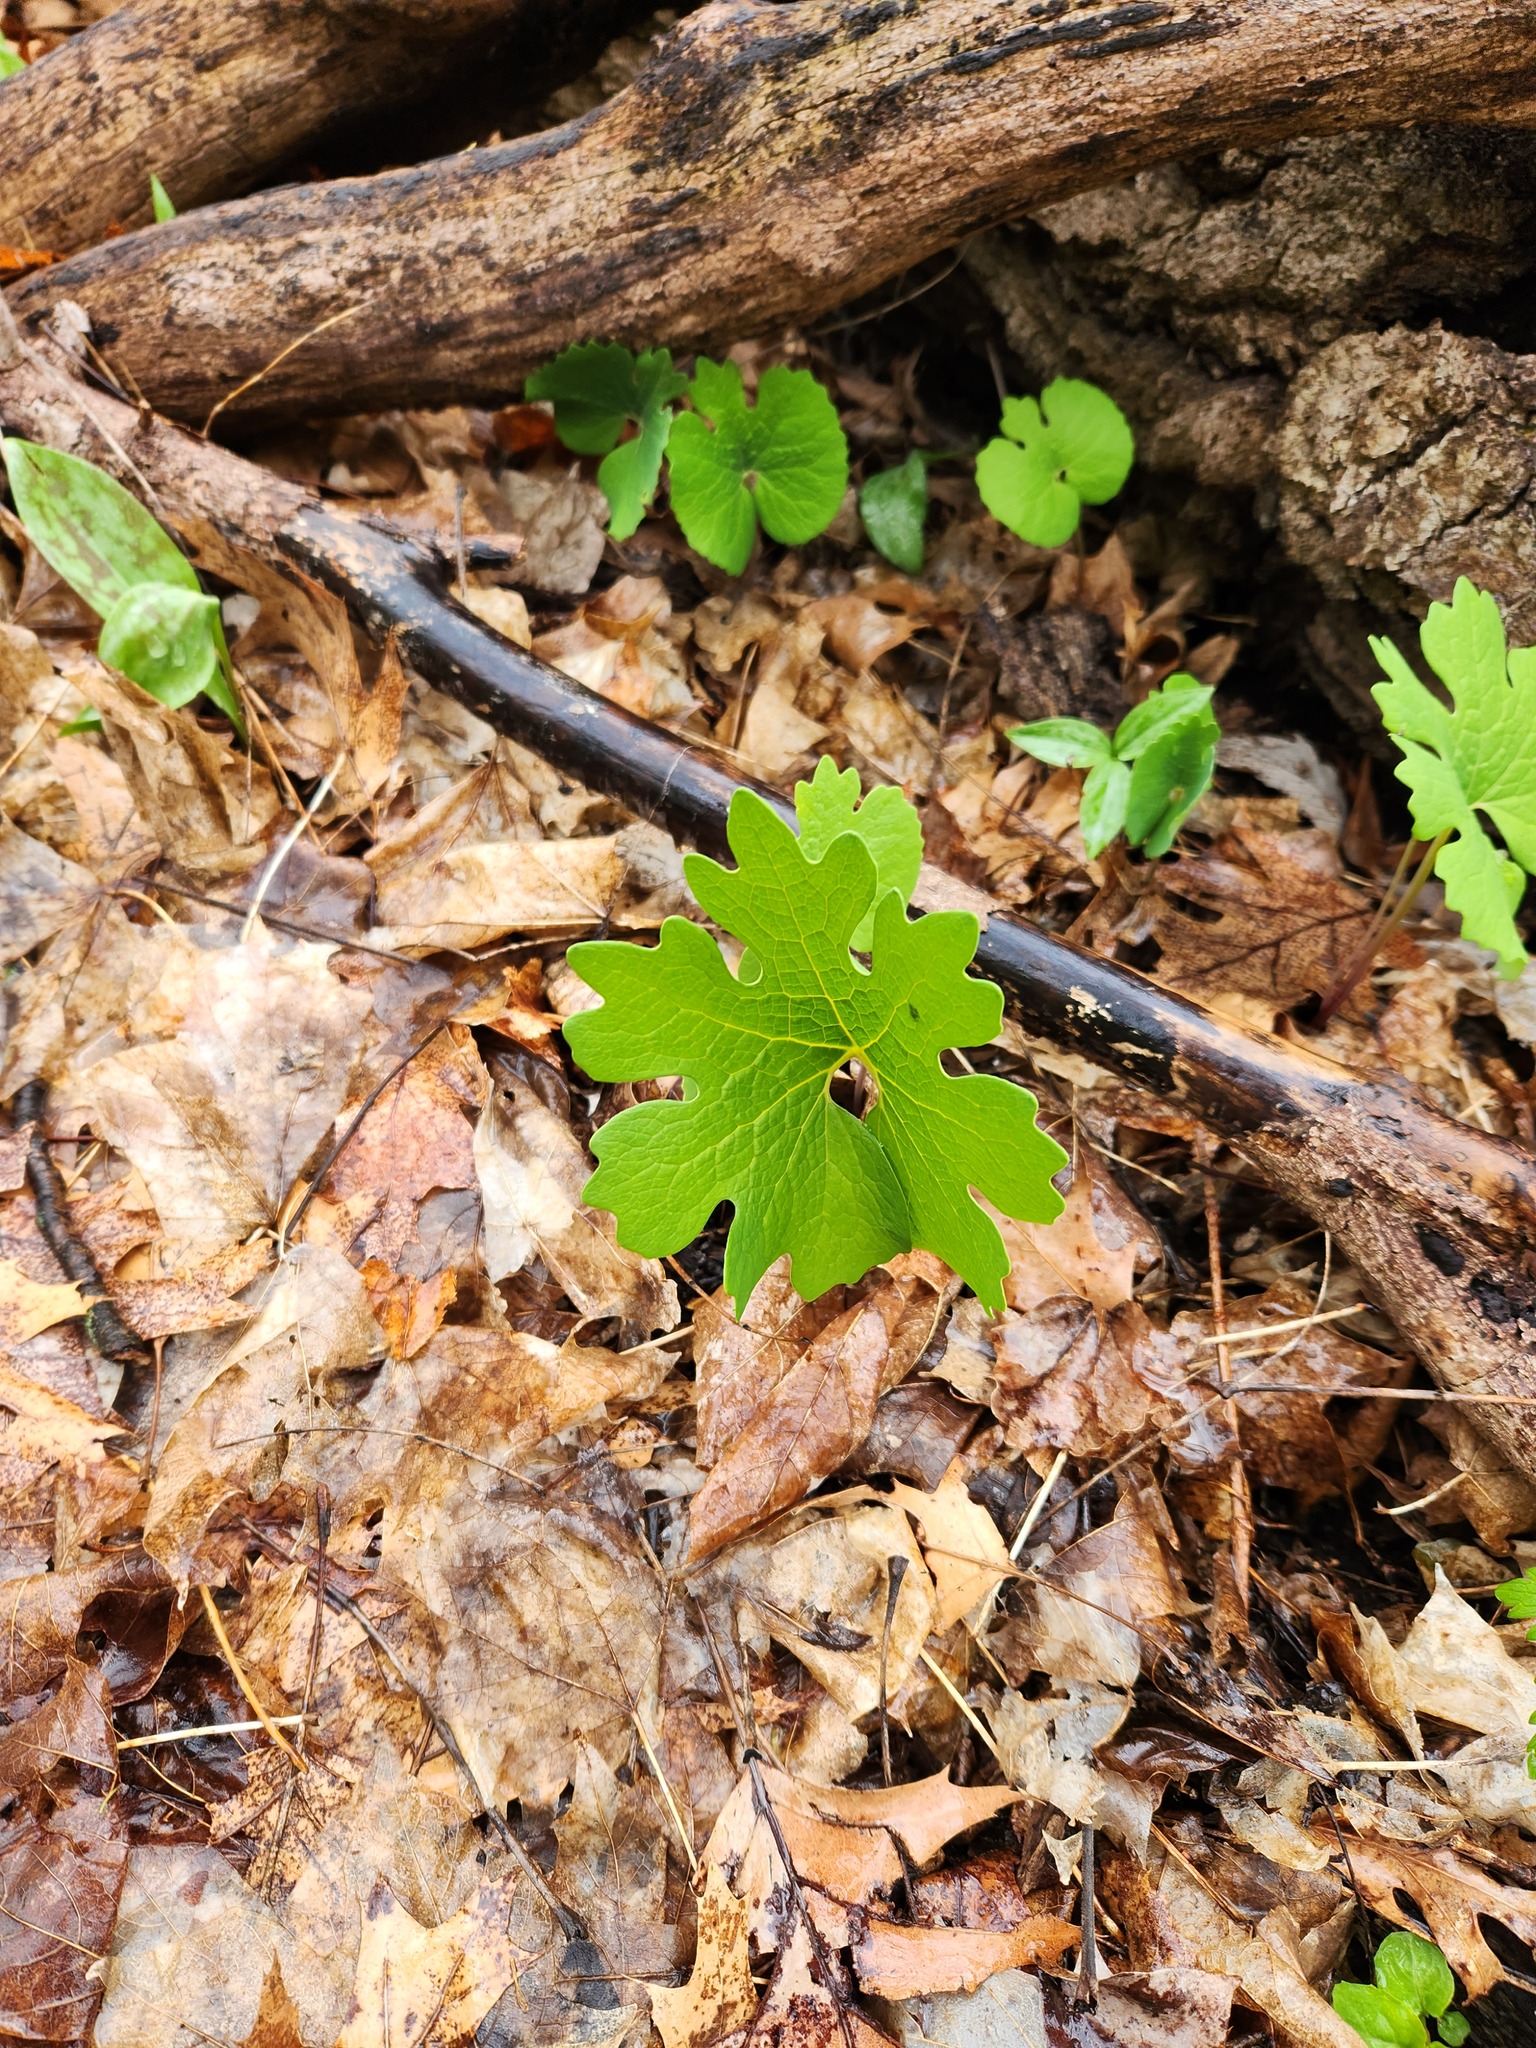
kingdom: Plantae
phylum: Tracheophyta
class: Magnoliopsida
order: Ranunculales
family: Papaveraceae
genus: Sanguinaria
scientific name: Sanguinaria canadensis
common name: Bloodroot
